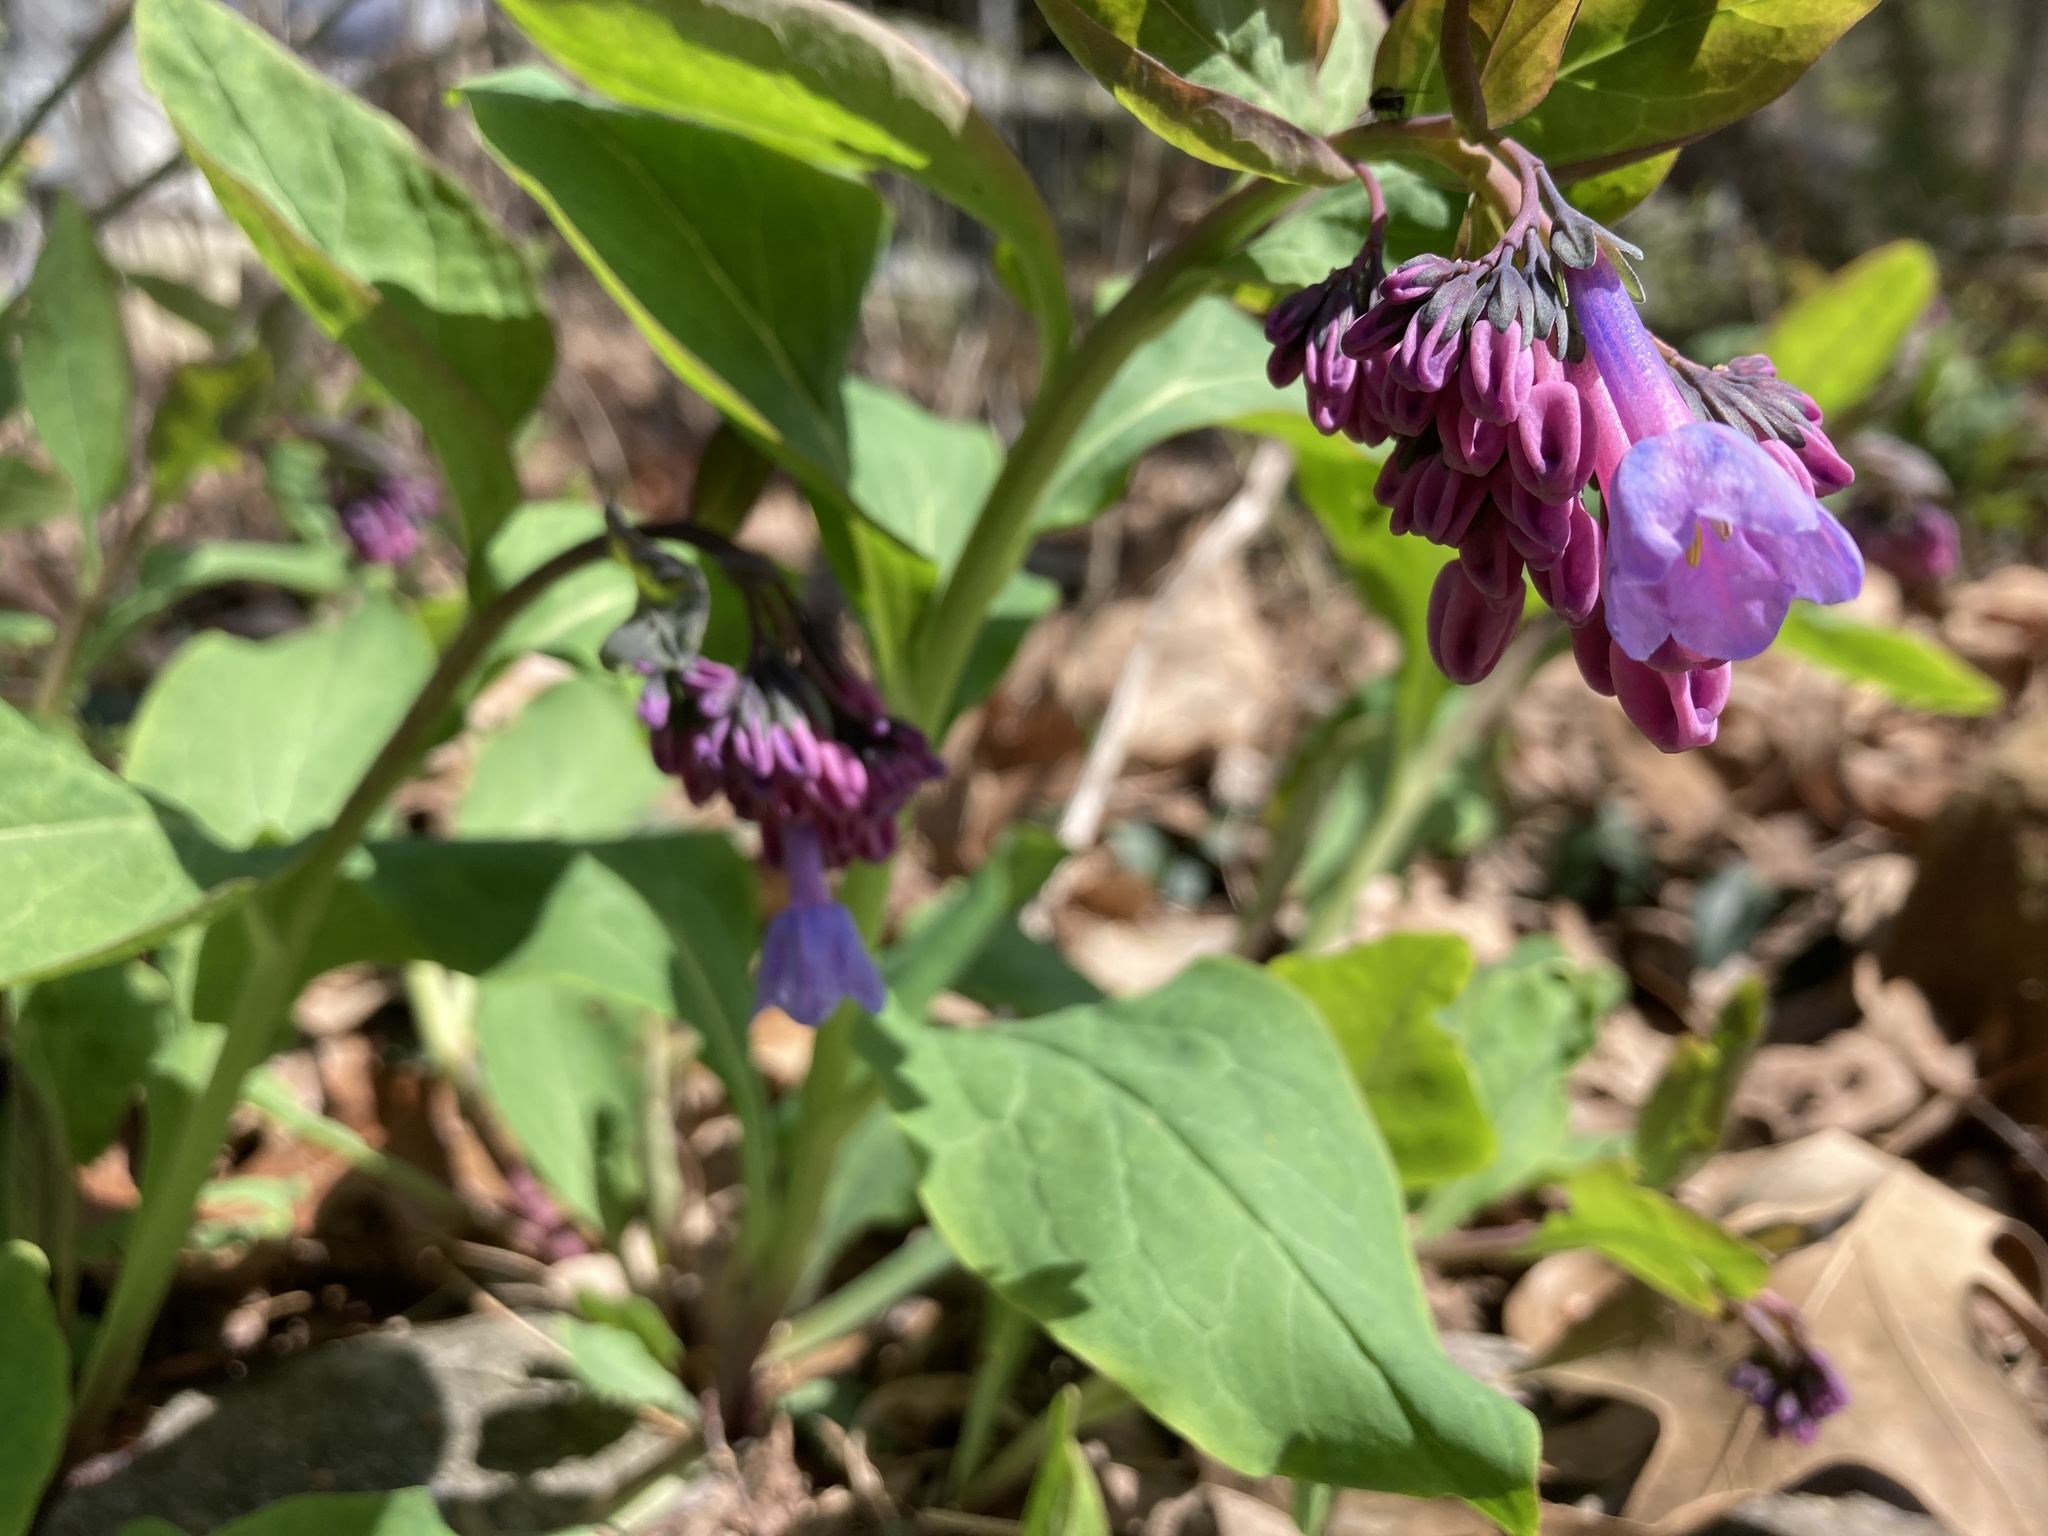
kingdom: Plantae
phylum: Tracheophyta
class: Magnoliopsida
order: Boraginales
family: Boraginaceae
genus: Mertensia
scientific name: Mertensia virginica
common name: Virginia bluebells
